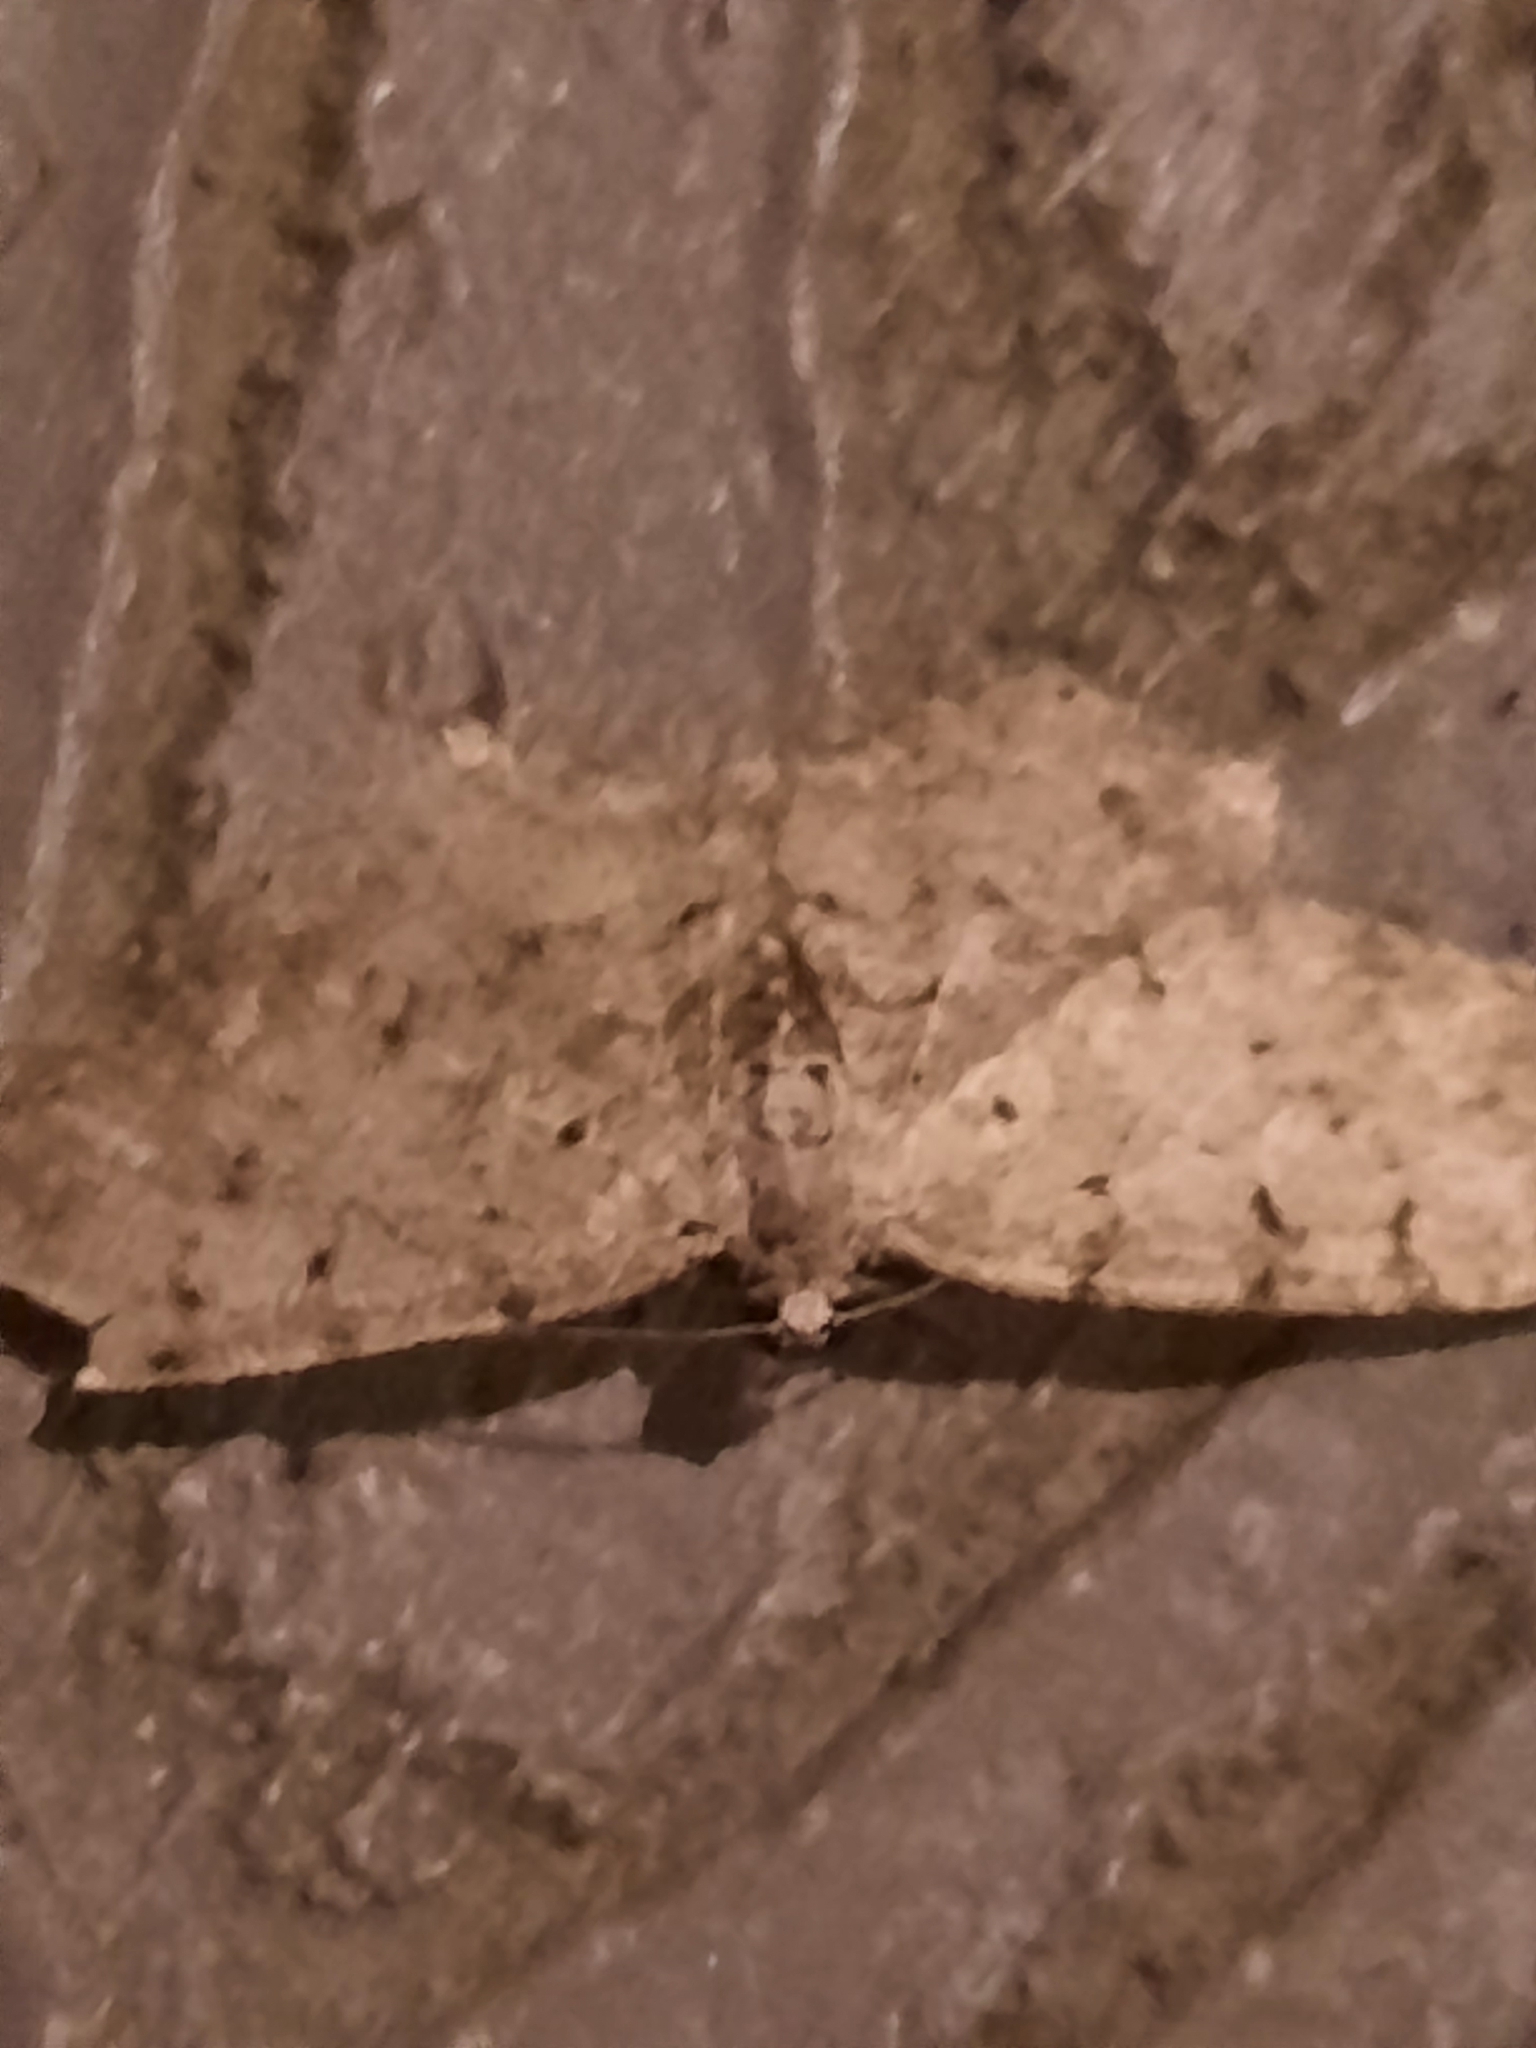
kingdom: Animalia
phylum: Arthropoda
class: Insecta
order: Lepidoptera
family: Geometridae
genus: Aethalura
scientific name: Aethalura intertexta
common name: Four-barred gray
